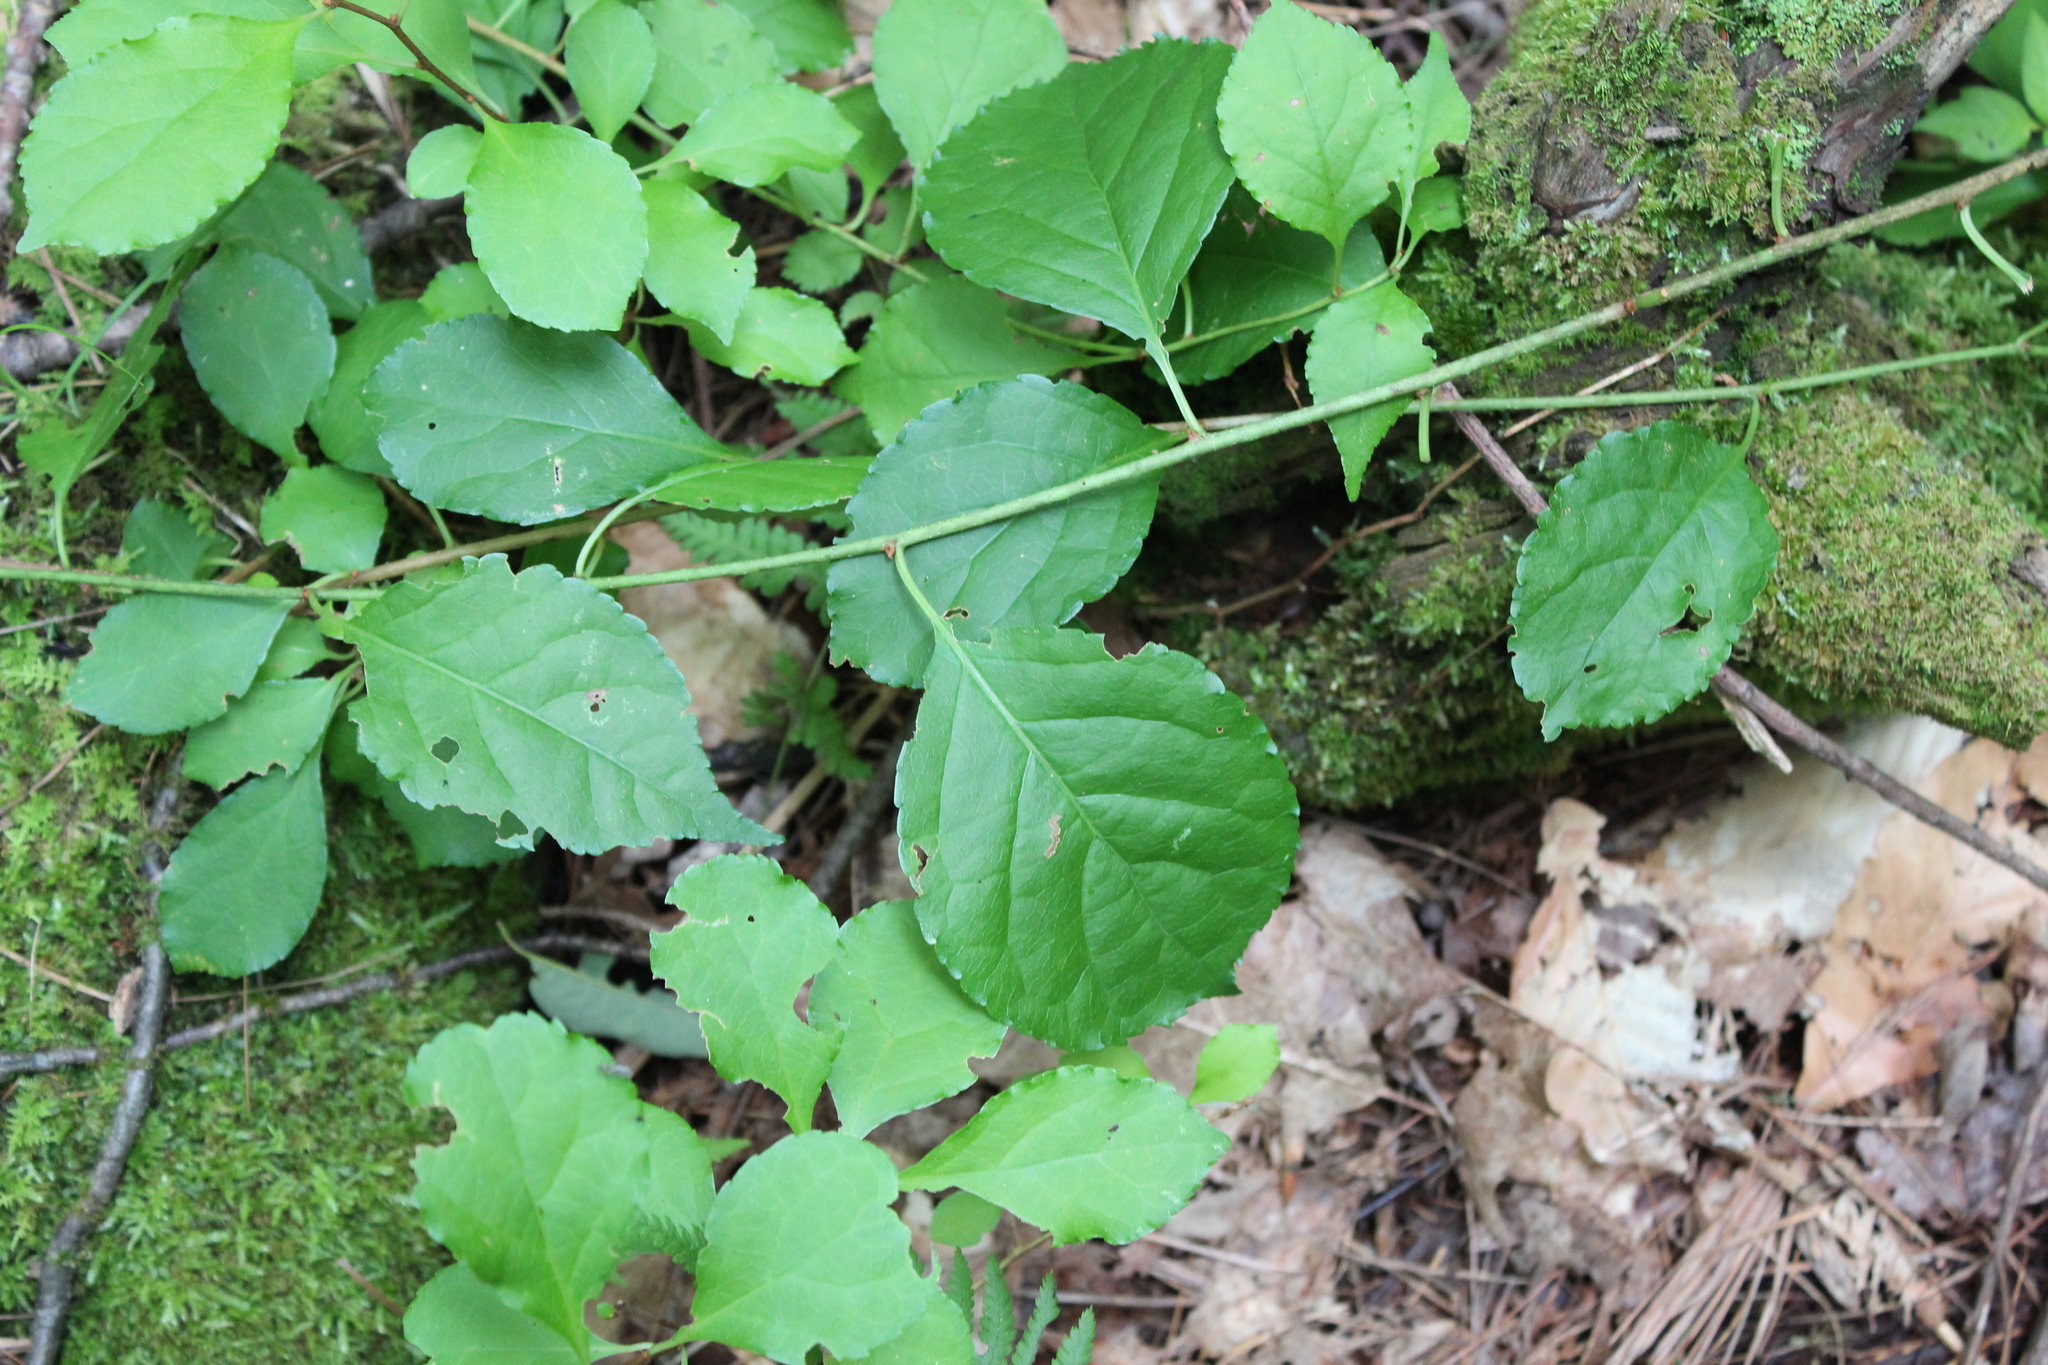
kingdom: Plantae
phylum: Tracheophyta
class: Magnoliopsida
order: Celastrales
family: Celastraceae
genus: Celastrus
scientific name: Celastrus orbiculatus
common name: Oriental bittersweet
